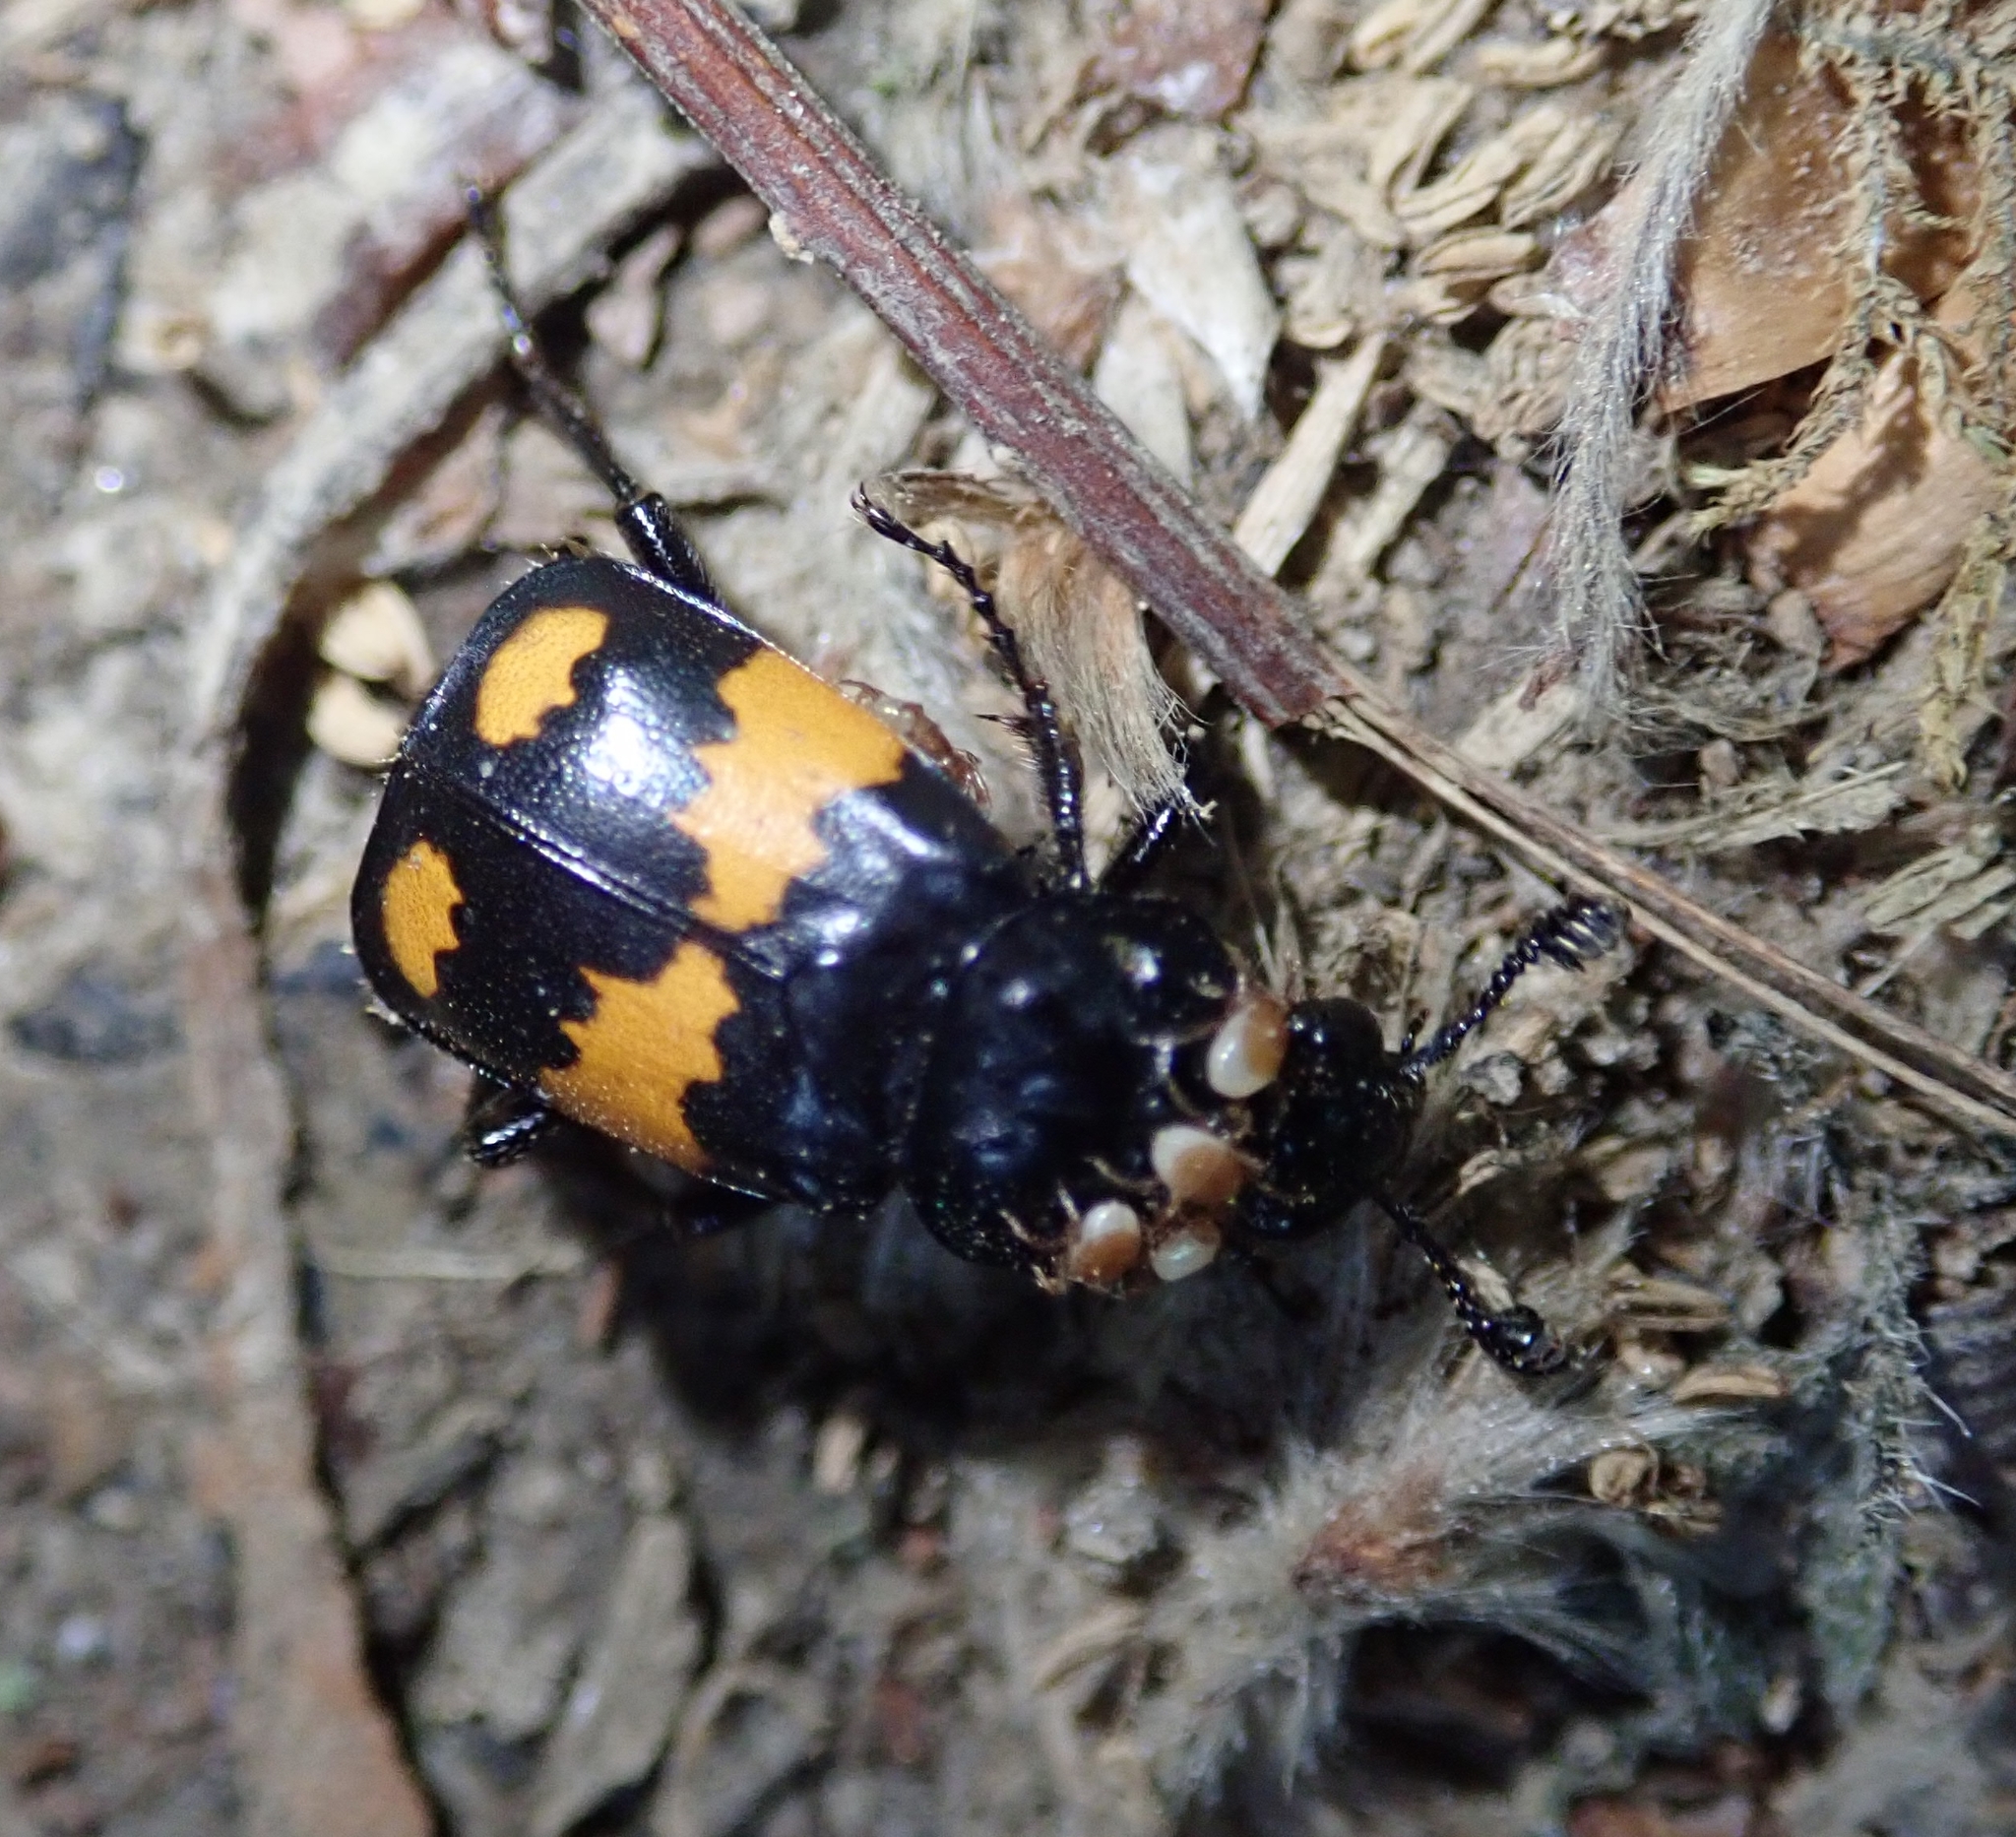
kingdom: Animalia
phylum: Arthropoda
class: Insecta
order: Coleoptera
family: Staphylinidae
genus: Nicrophorus
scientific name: Nicrophorus vespilloides
